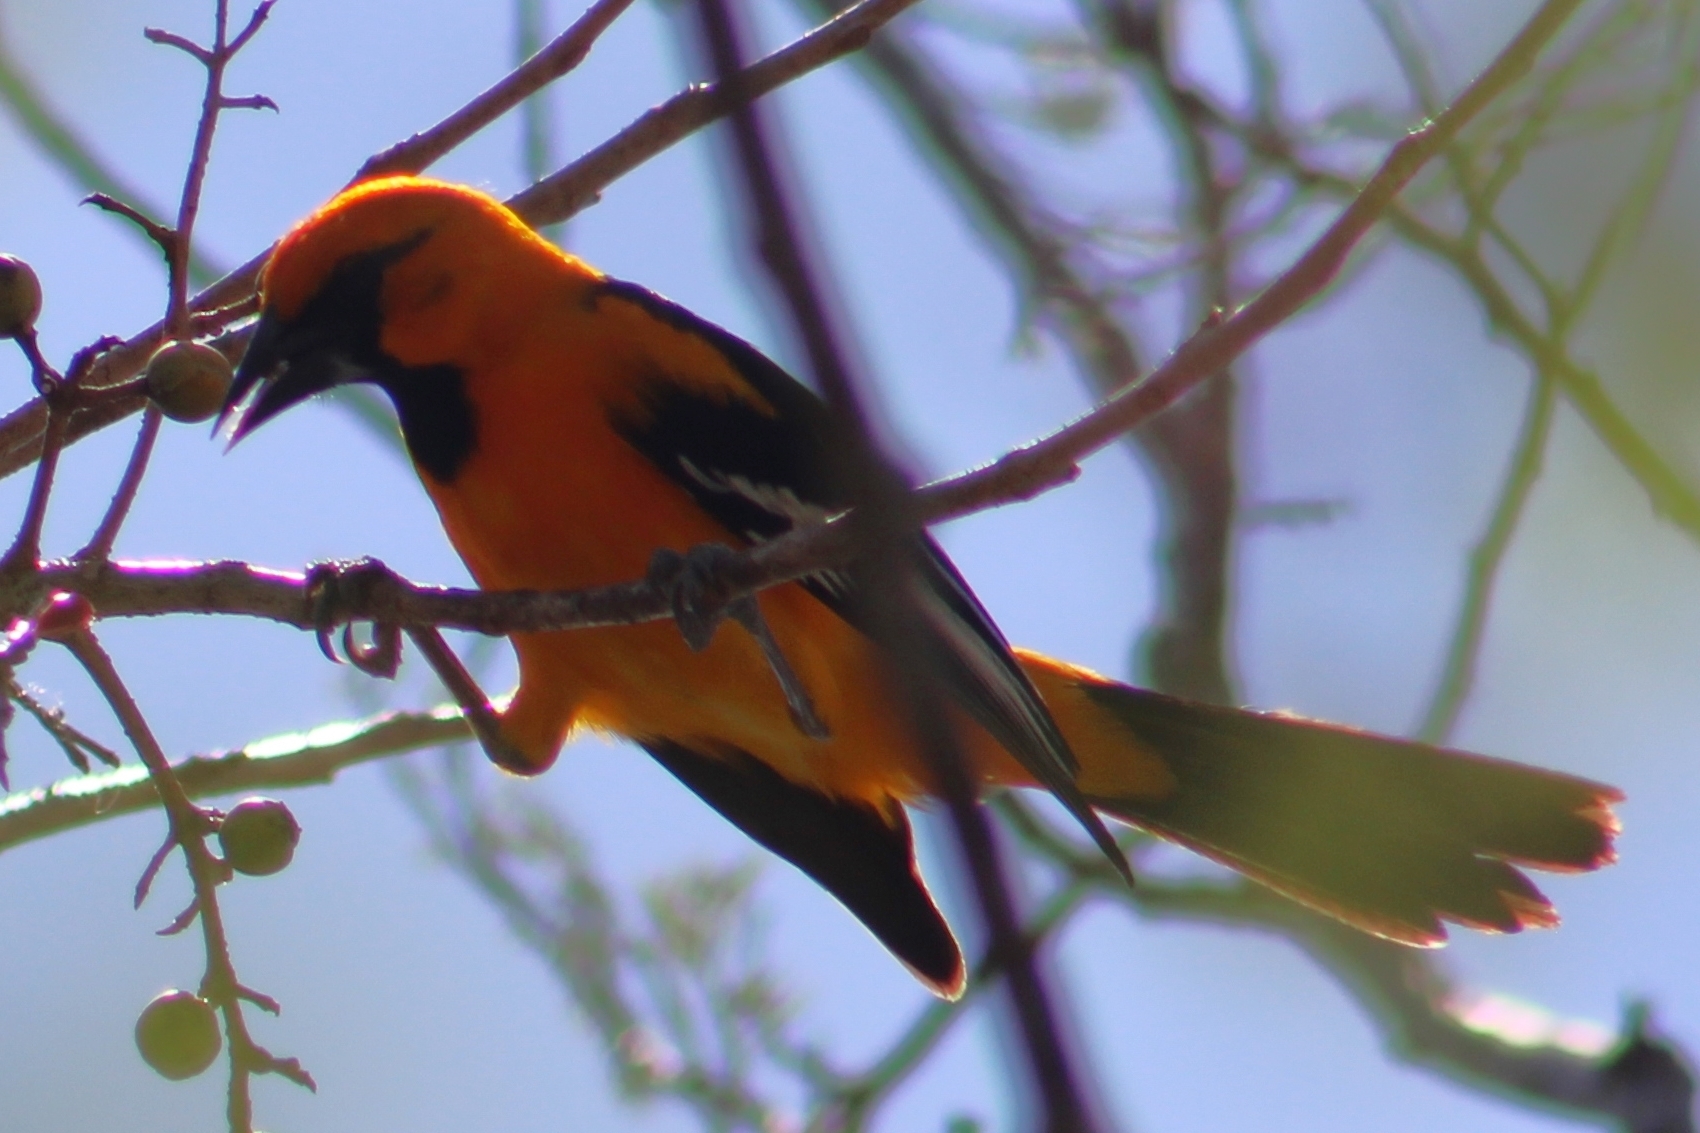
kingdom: Animalia
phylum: Chordata
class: Aves
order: Passeriformes
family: Icteridae
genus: Icterus
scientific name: Icterus gularis
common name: Altamira oriole
